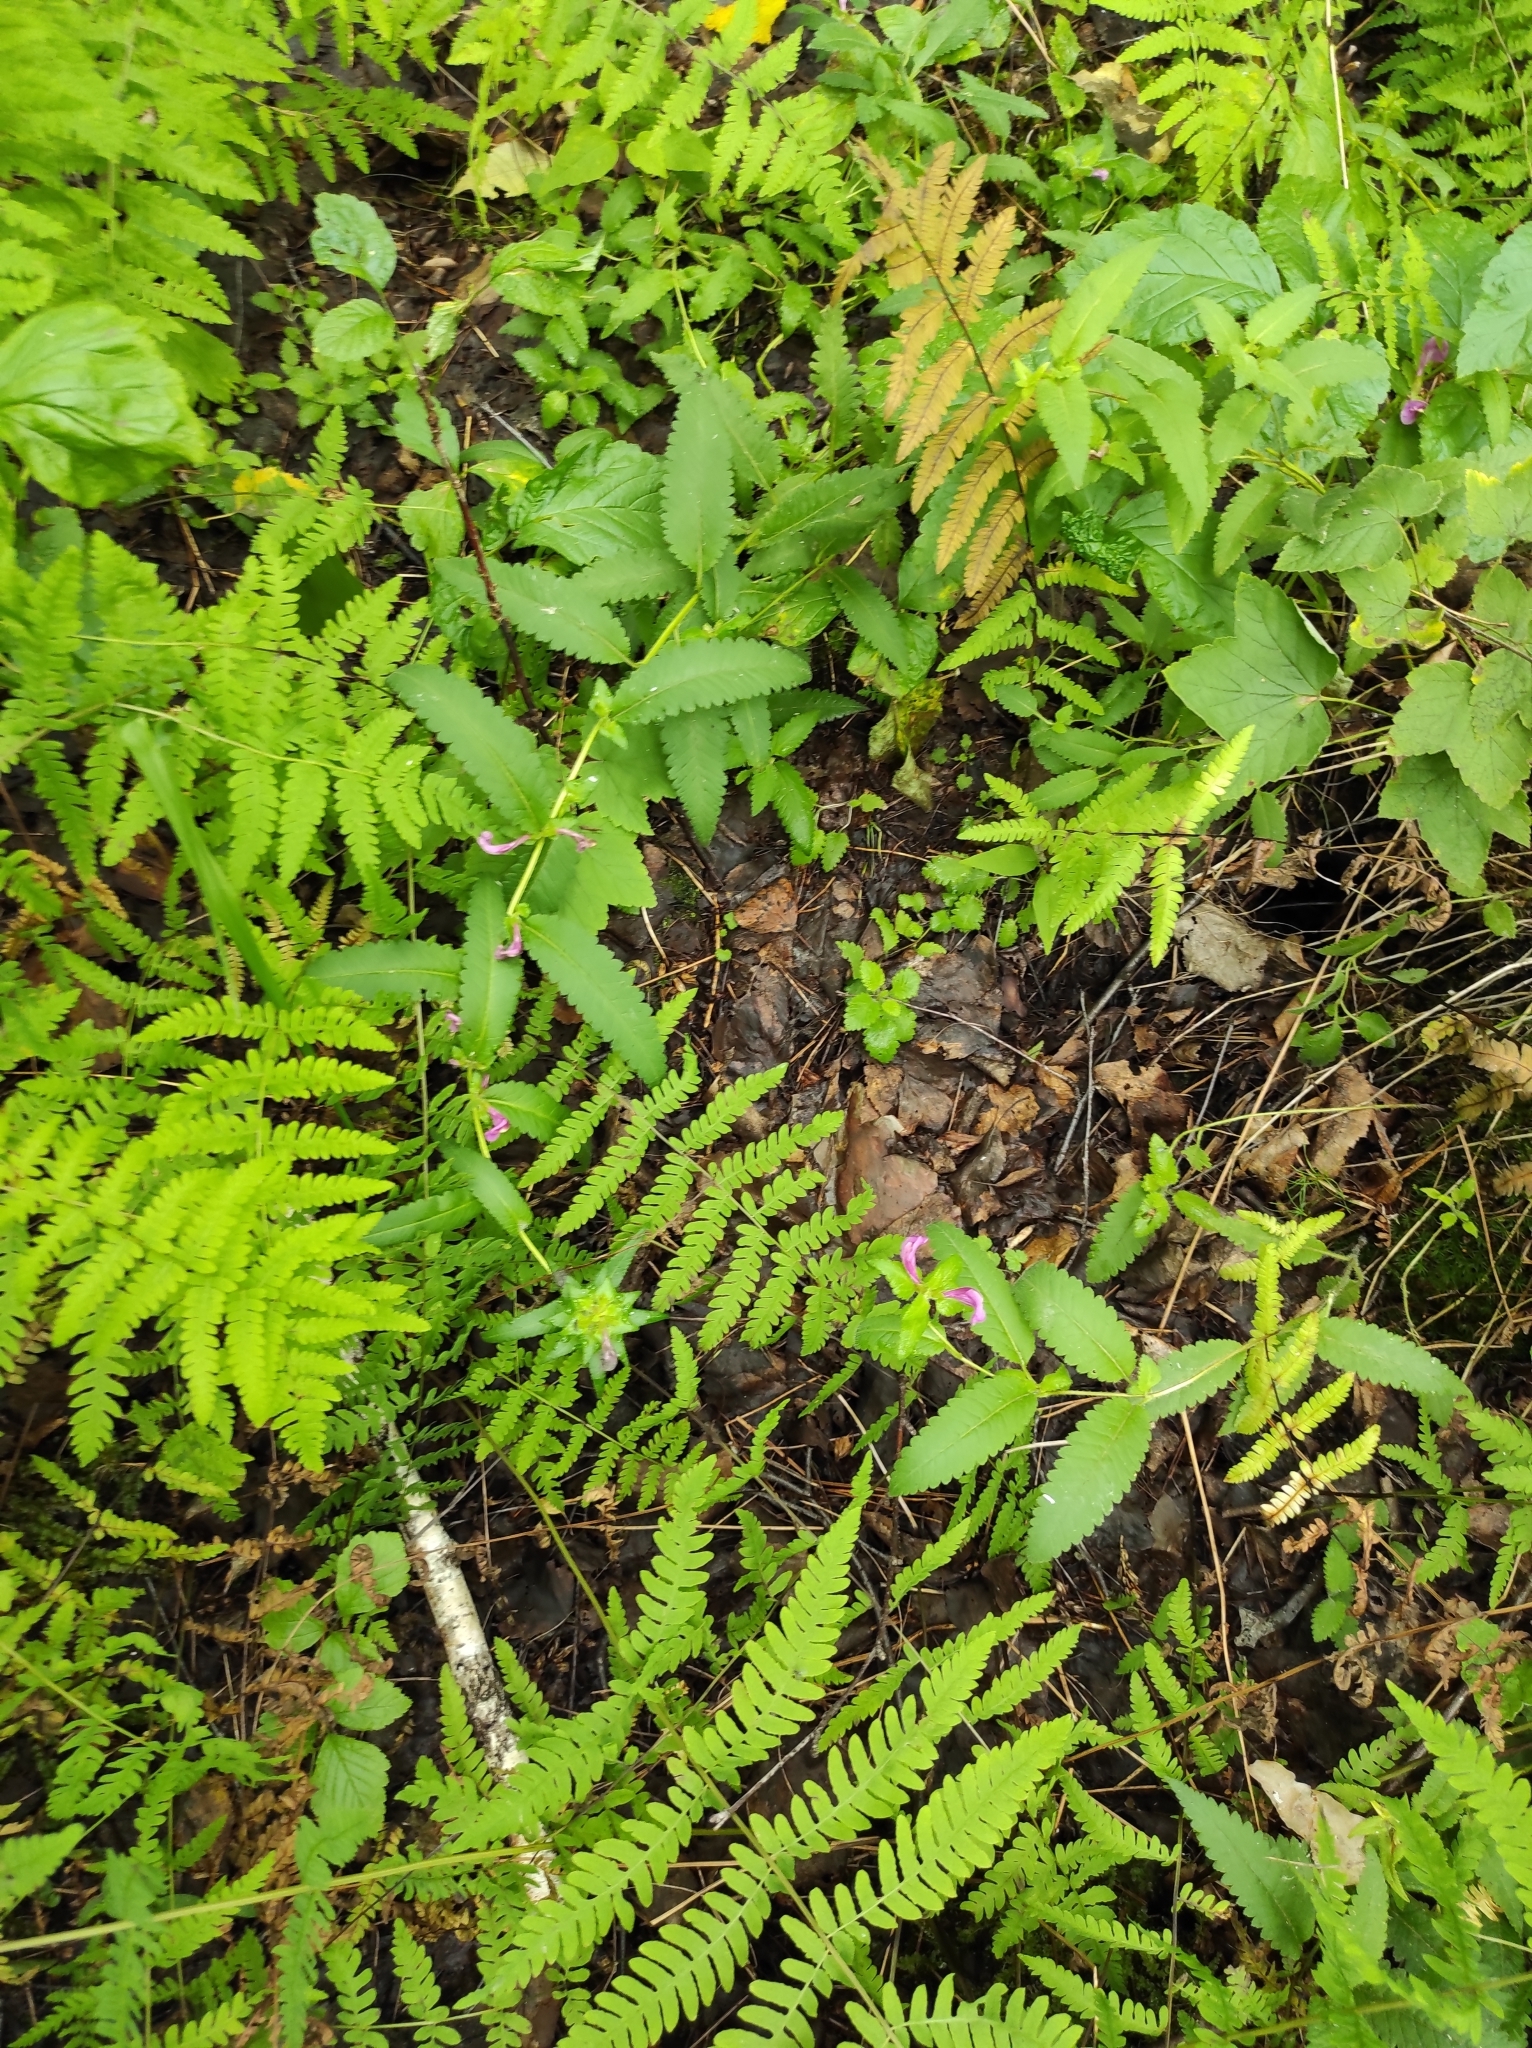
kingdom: Plantae
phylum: Tracheophyta
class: Magnoliopsida
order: Lamiales
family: Orobanchaceae
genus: Pedicularis
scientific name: Pedicularis resupinata
